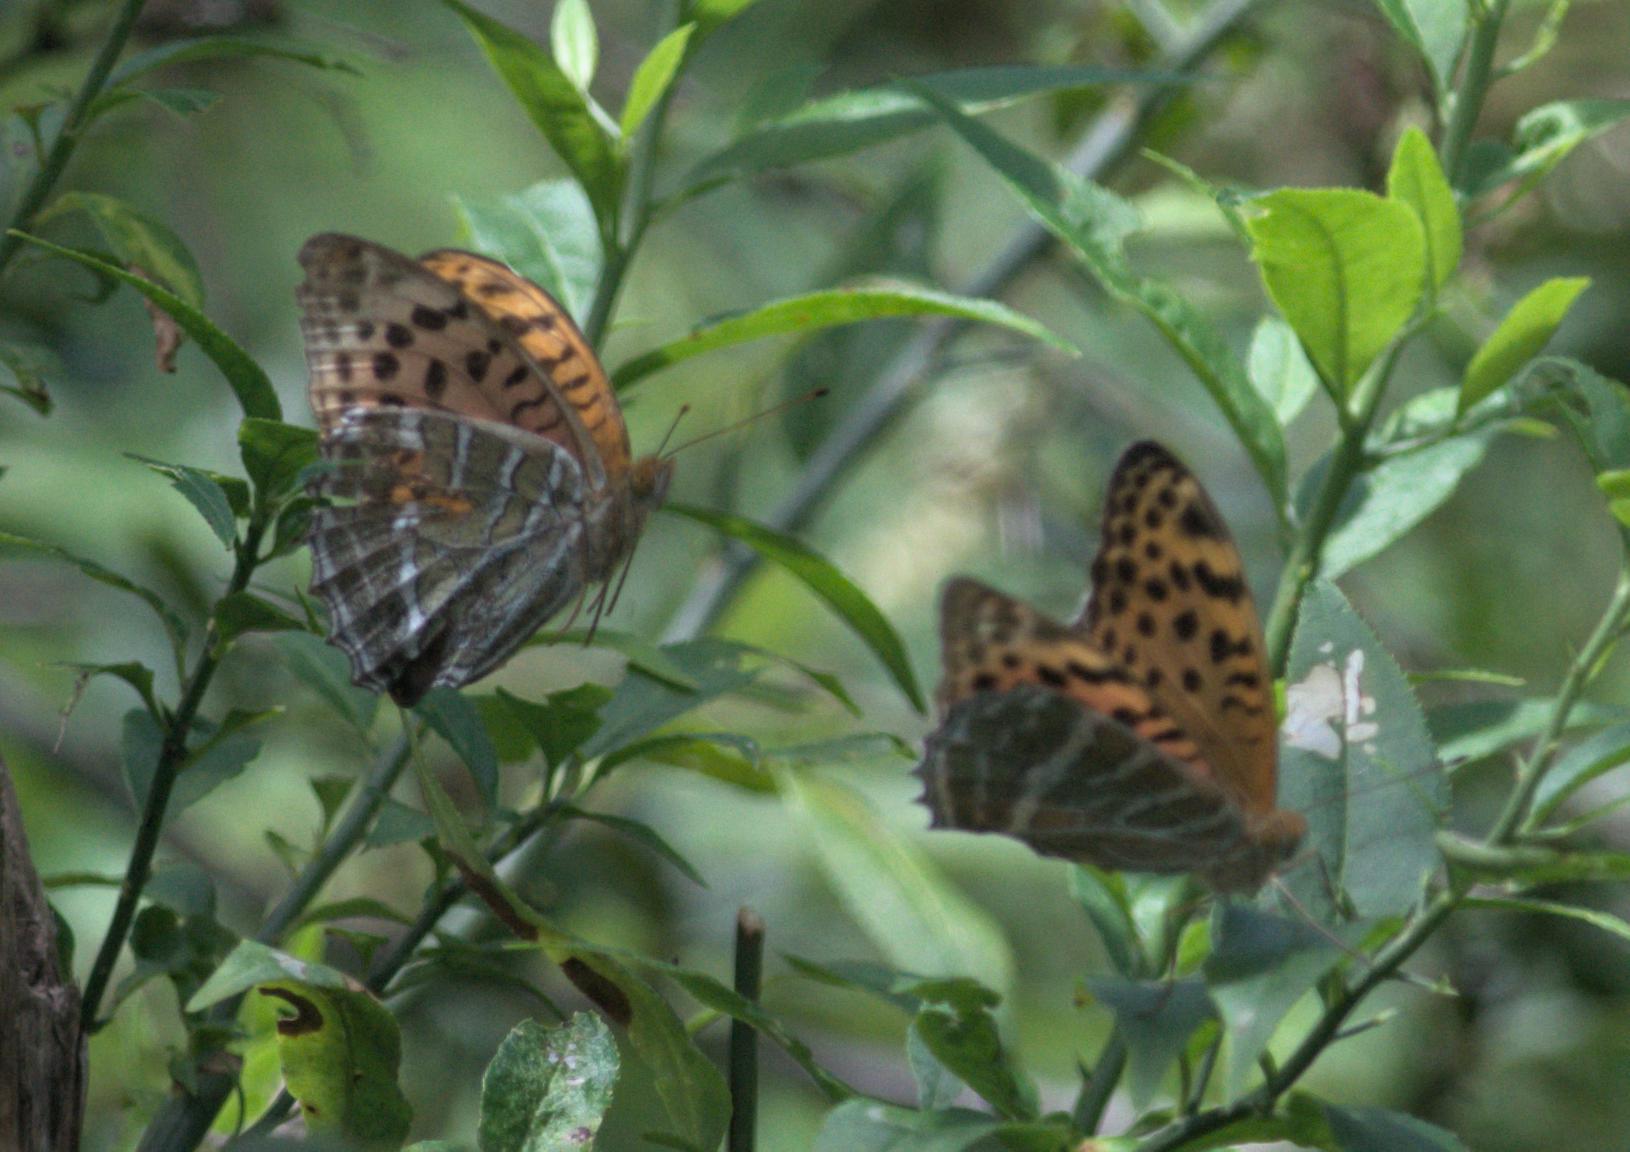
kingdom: Animalia
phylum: Arthropoda
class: Insecta
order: Lepidoptera
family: Nymphalidae
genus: Childrena
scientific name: Childrena childreni
